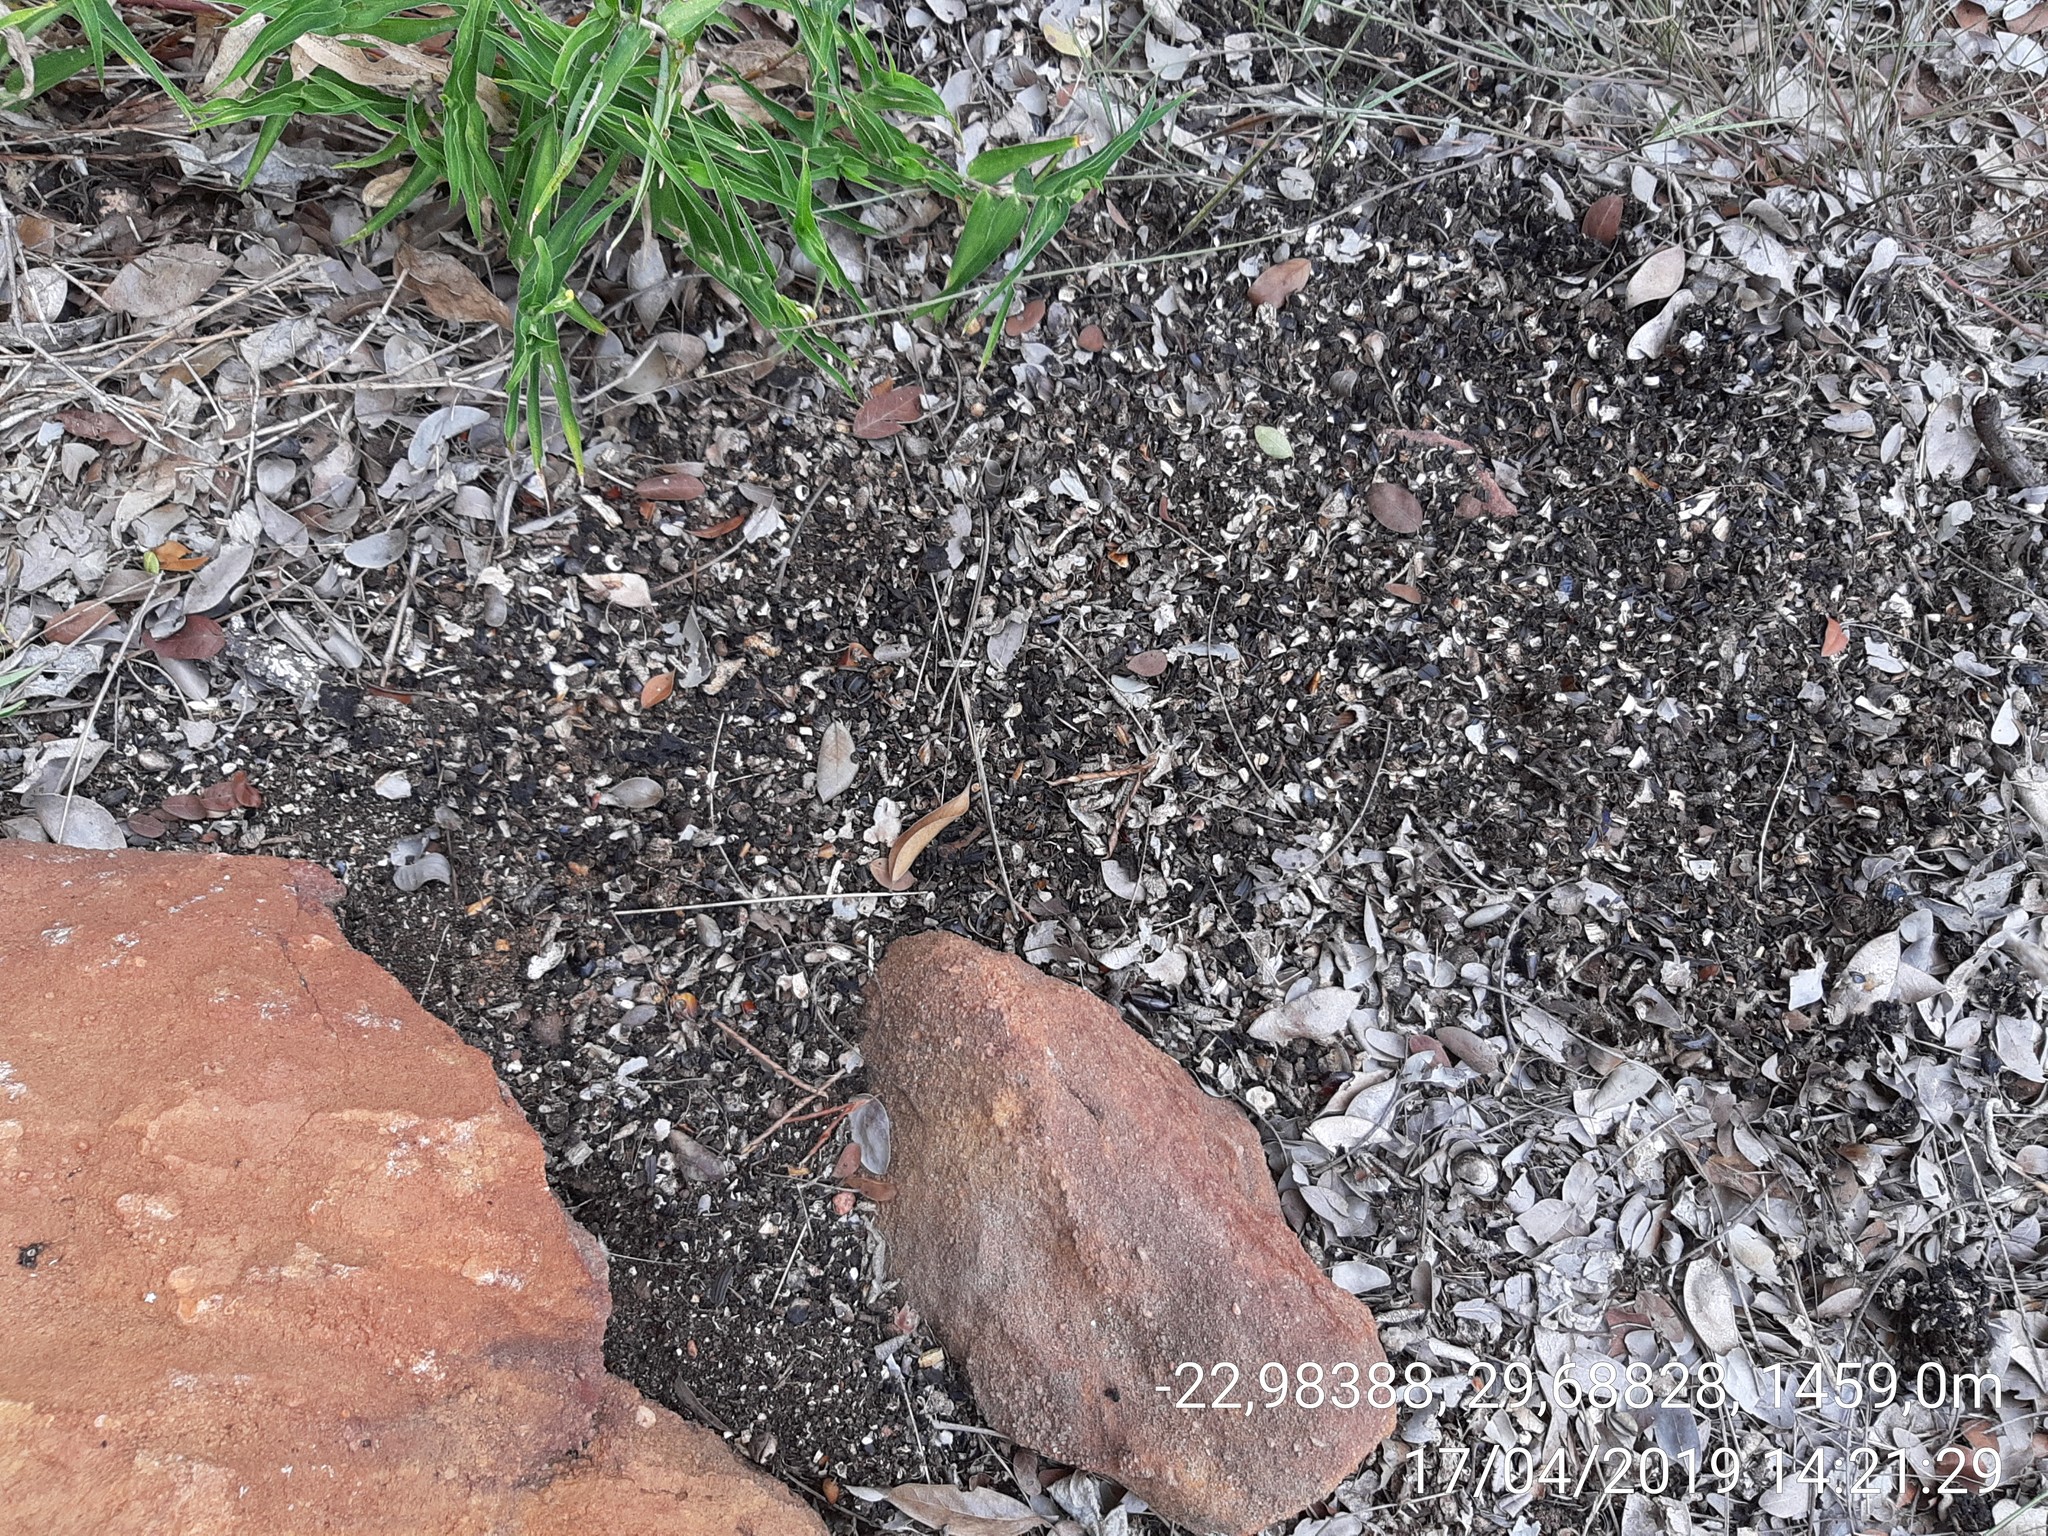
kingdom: Animalia
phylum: Chordata
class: Mammalia
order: Carnivora
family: Viverridae
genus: Civettictis
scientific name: Civettictis civetta
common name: African civet
